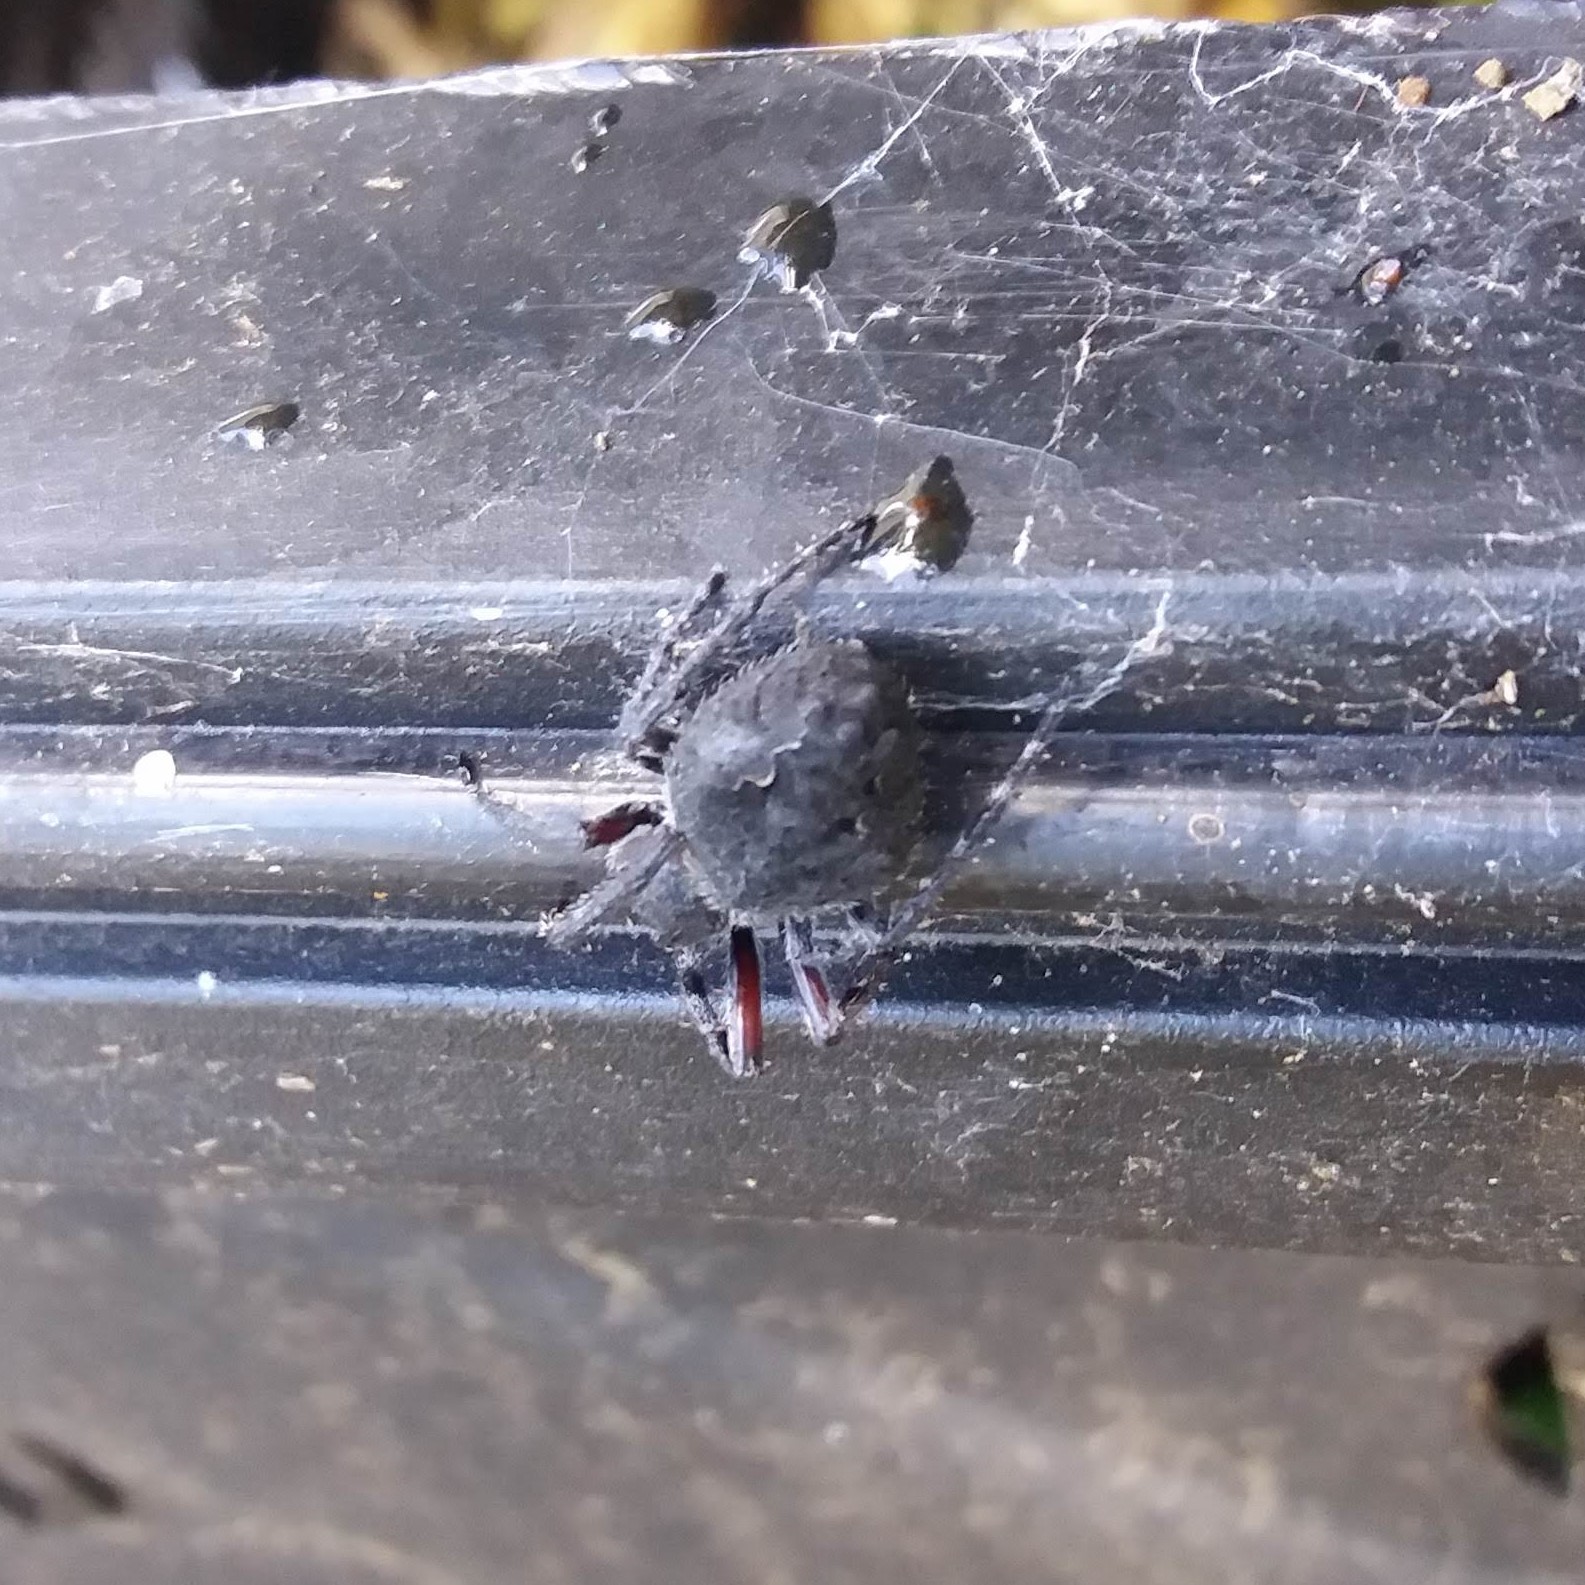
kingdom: Animalia
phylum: Arthropoda
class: Arachnida
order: Araneae
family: Araneidae
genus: Eriophora
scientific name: Eriophora pustulosa
